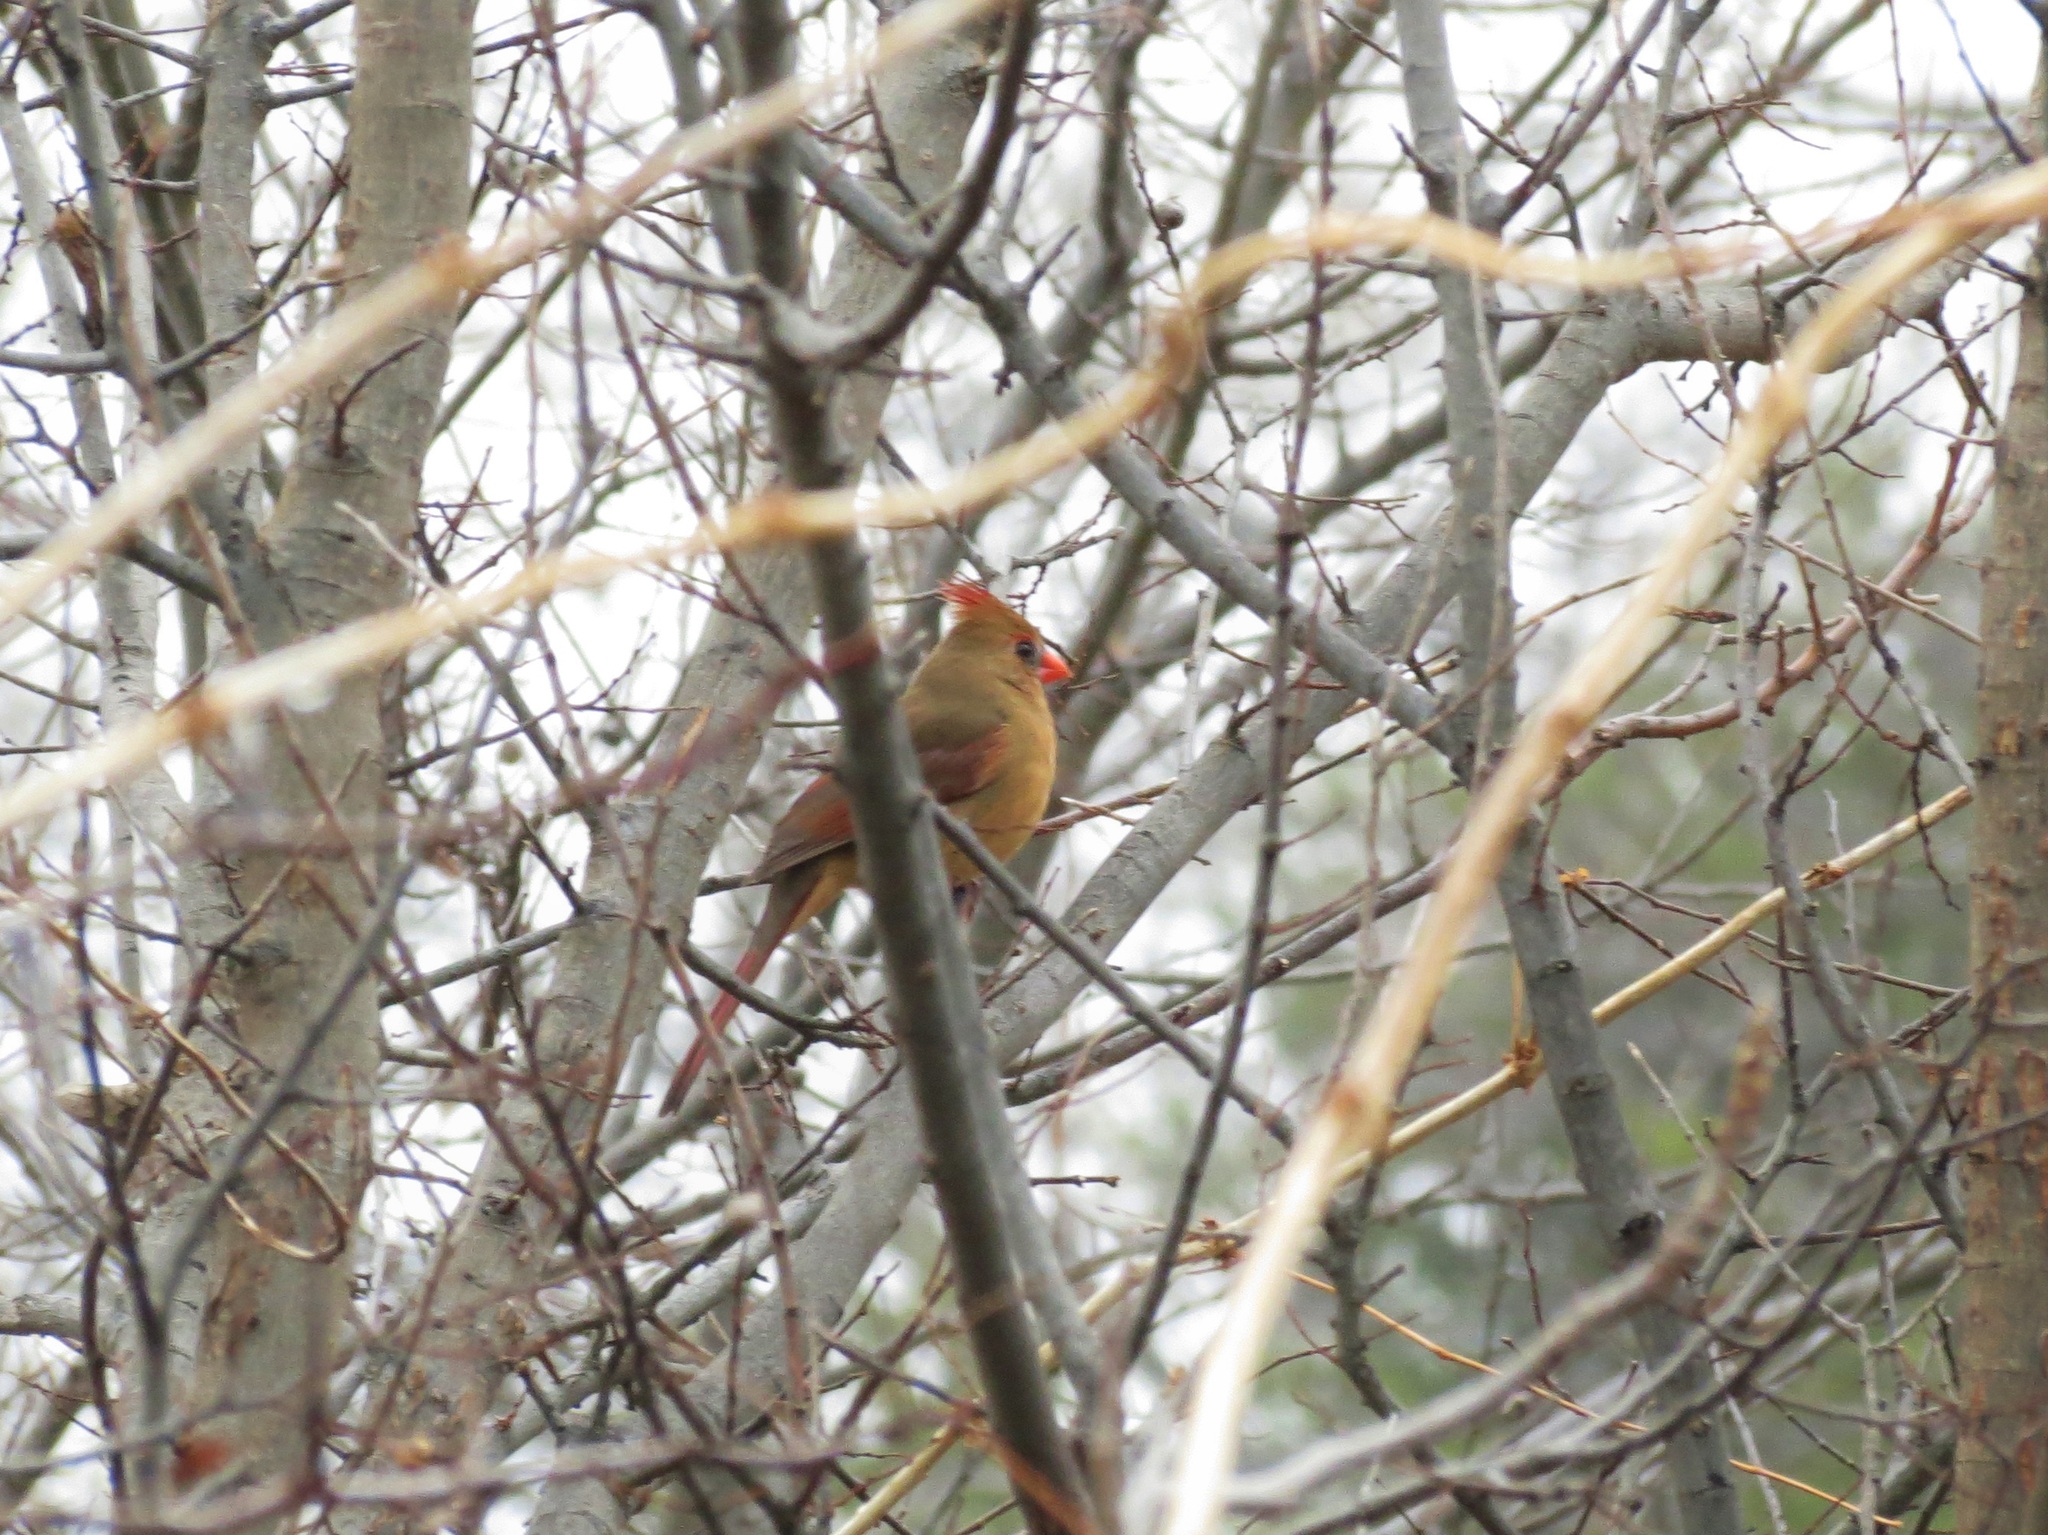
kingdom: Animalia
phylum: Chordata
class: Aves
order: Passeriformes
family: Cardinalidae
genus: Cardinalis
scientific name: Cardinalis cardinalis
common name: Northern cardinal
